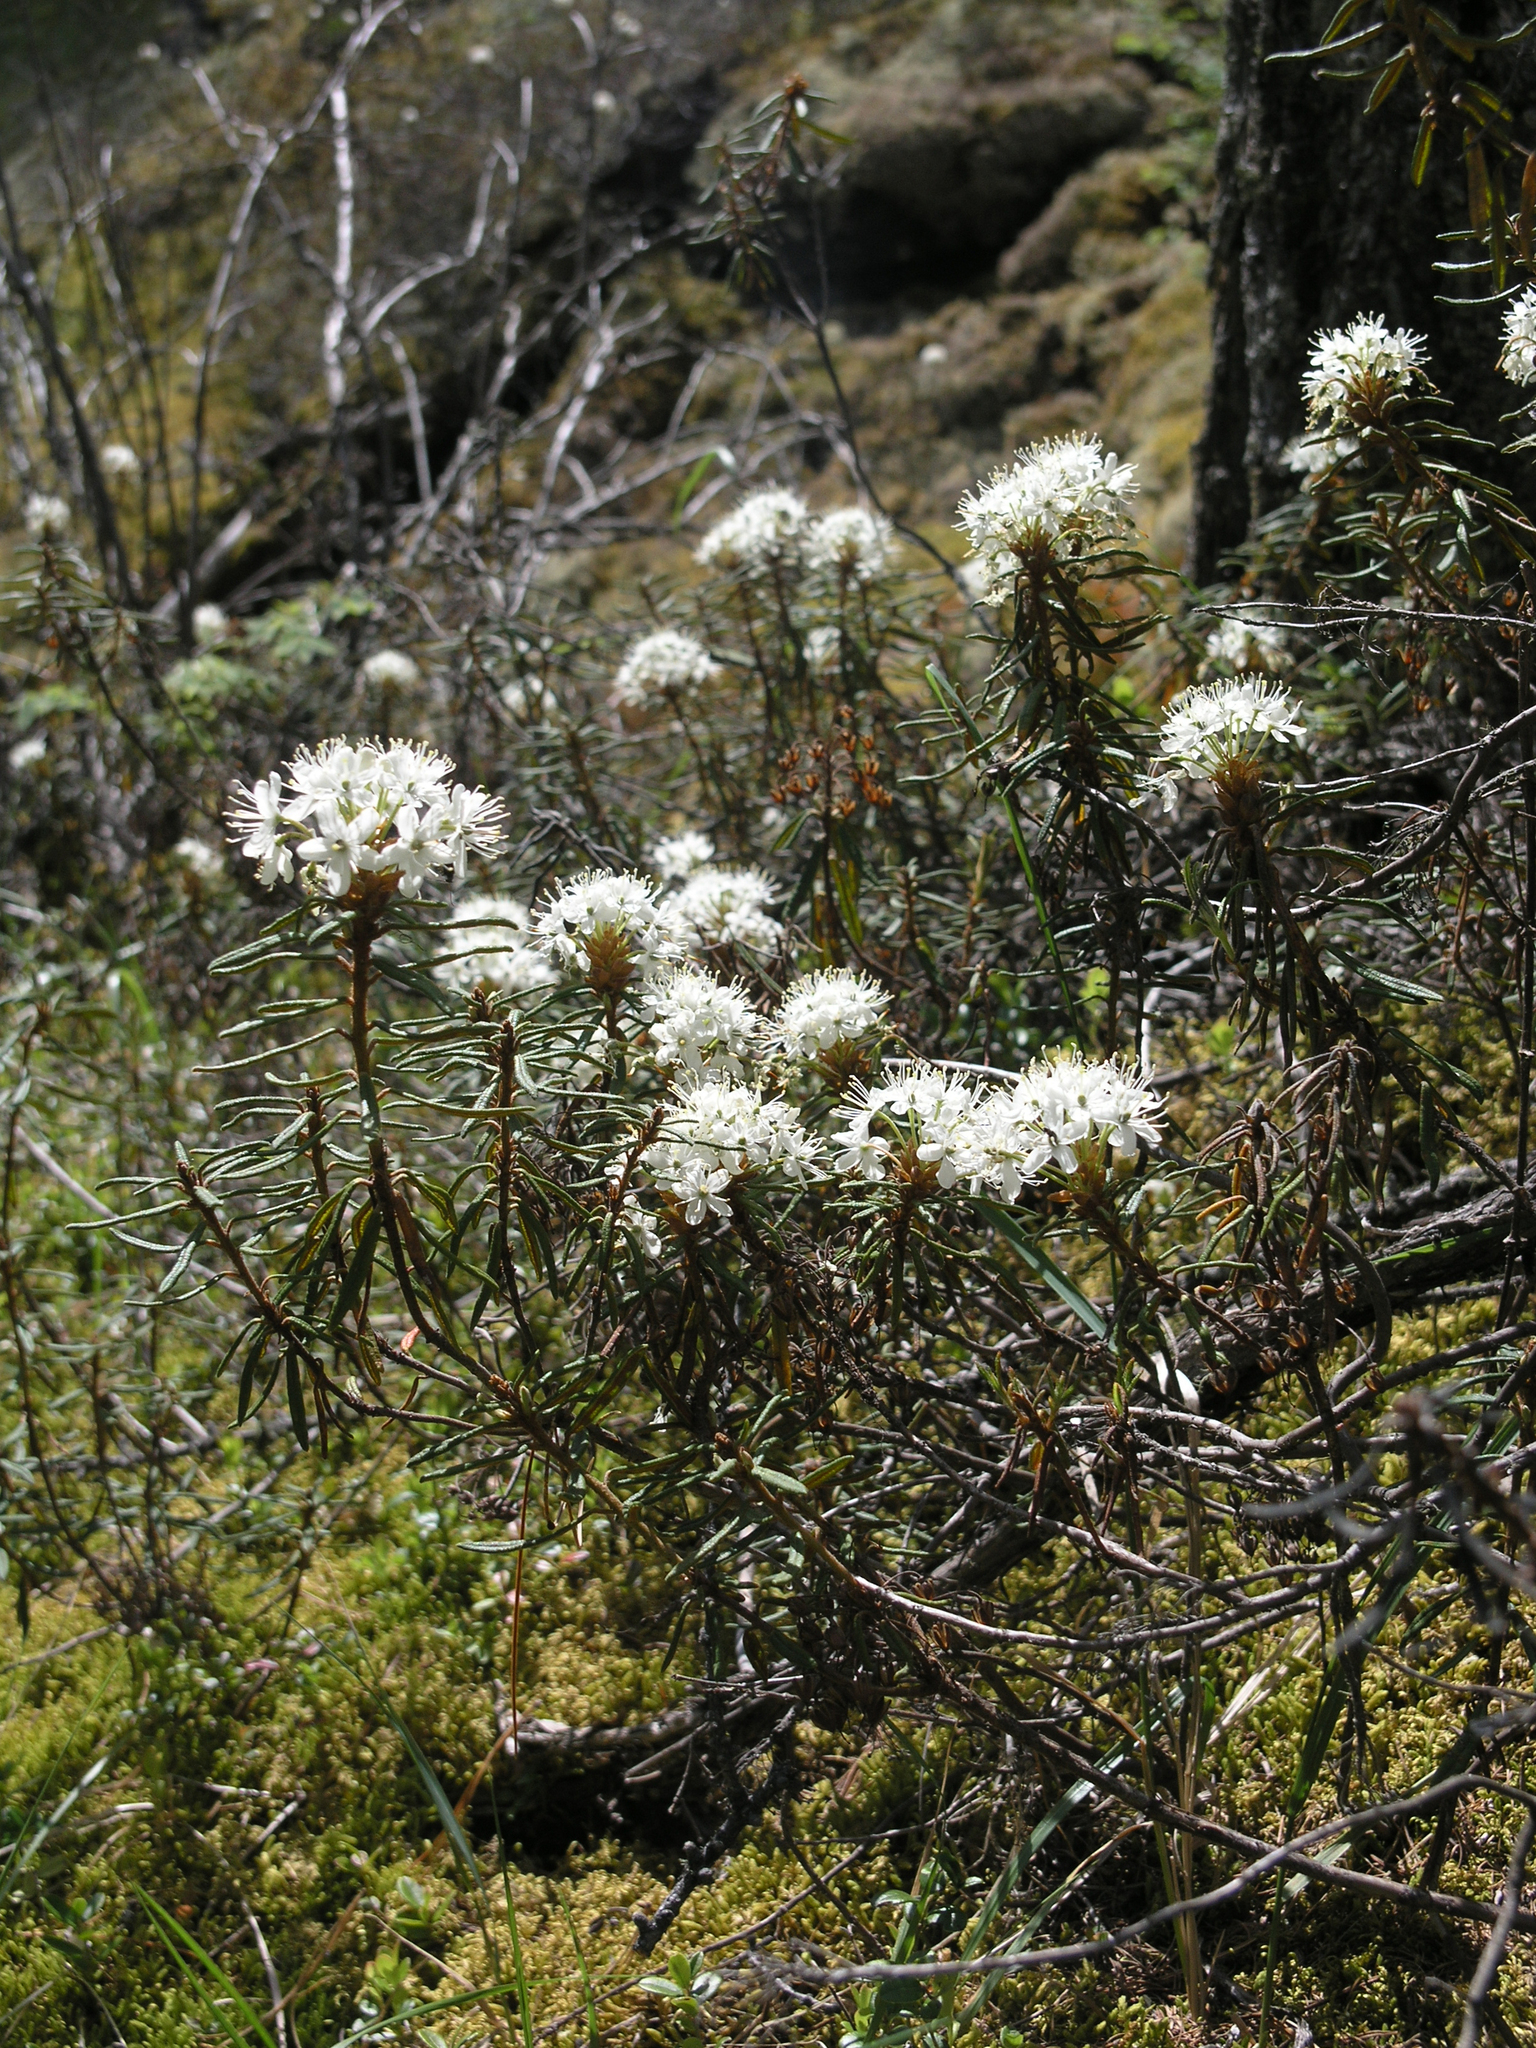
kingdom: Plantae
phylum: Tracheophyta
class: Magnoliopsida
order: Ericales
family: Ericaceae
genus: Rhododendron
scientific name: Rhododendron tomentosum
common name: Marsh labrador tea
